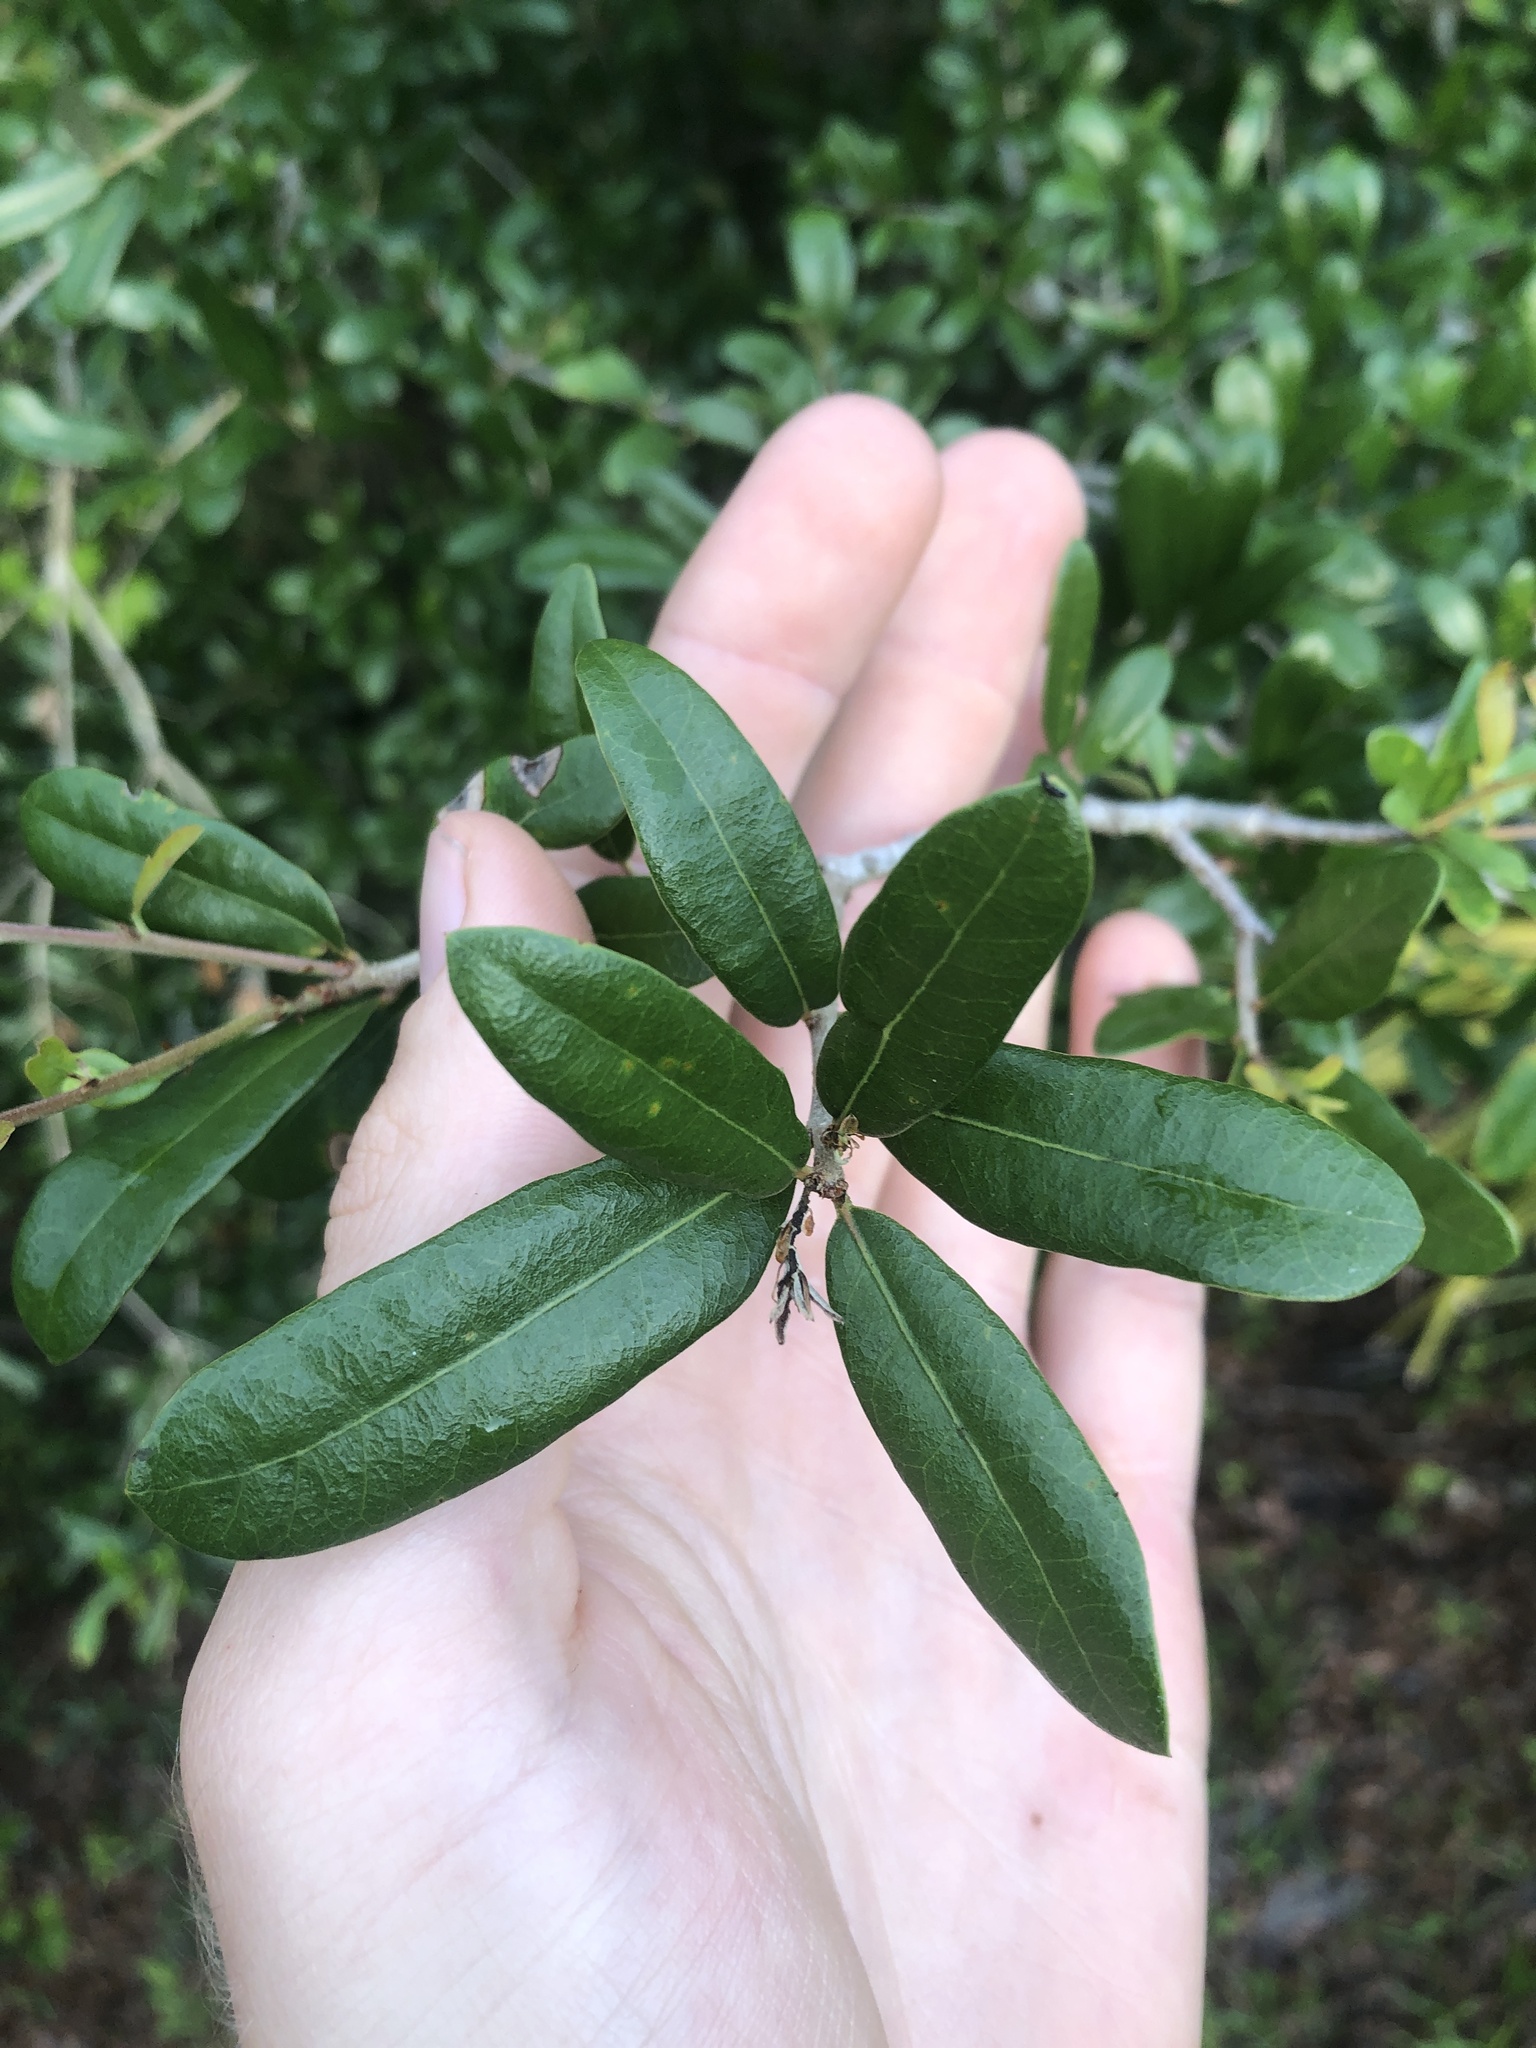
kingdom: Plantae
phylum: Tracheophyta
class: Magnoliopsida
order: Fagales
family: Fagaceae
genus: Quercus
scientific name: Quercus virginiana
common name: Southern live oak
